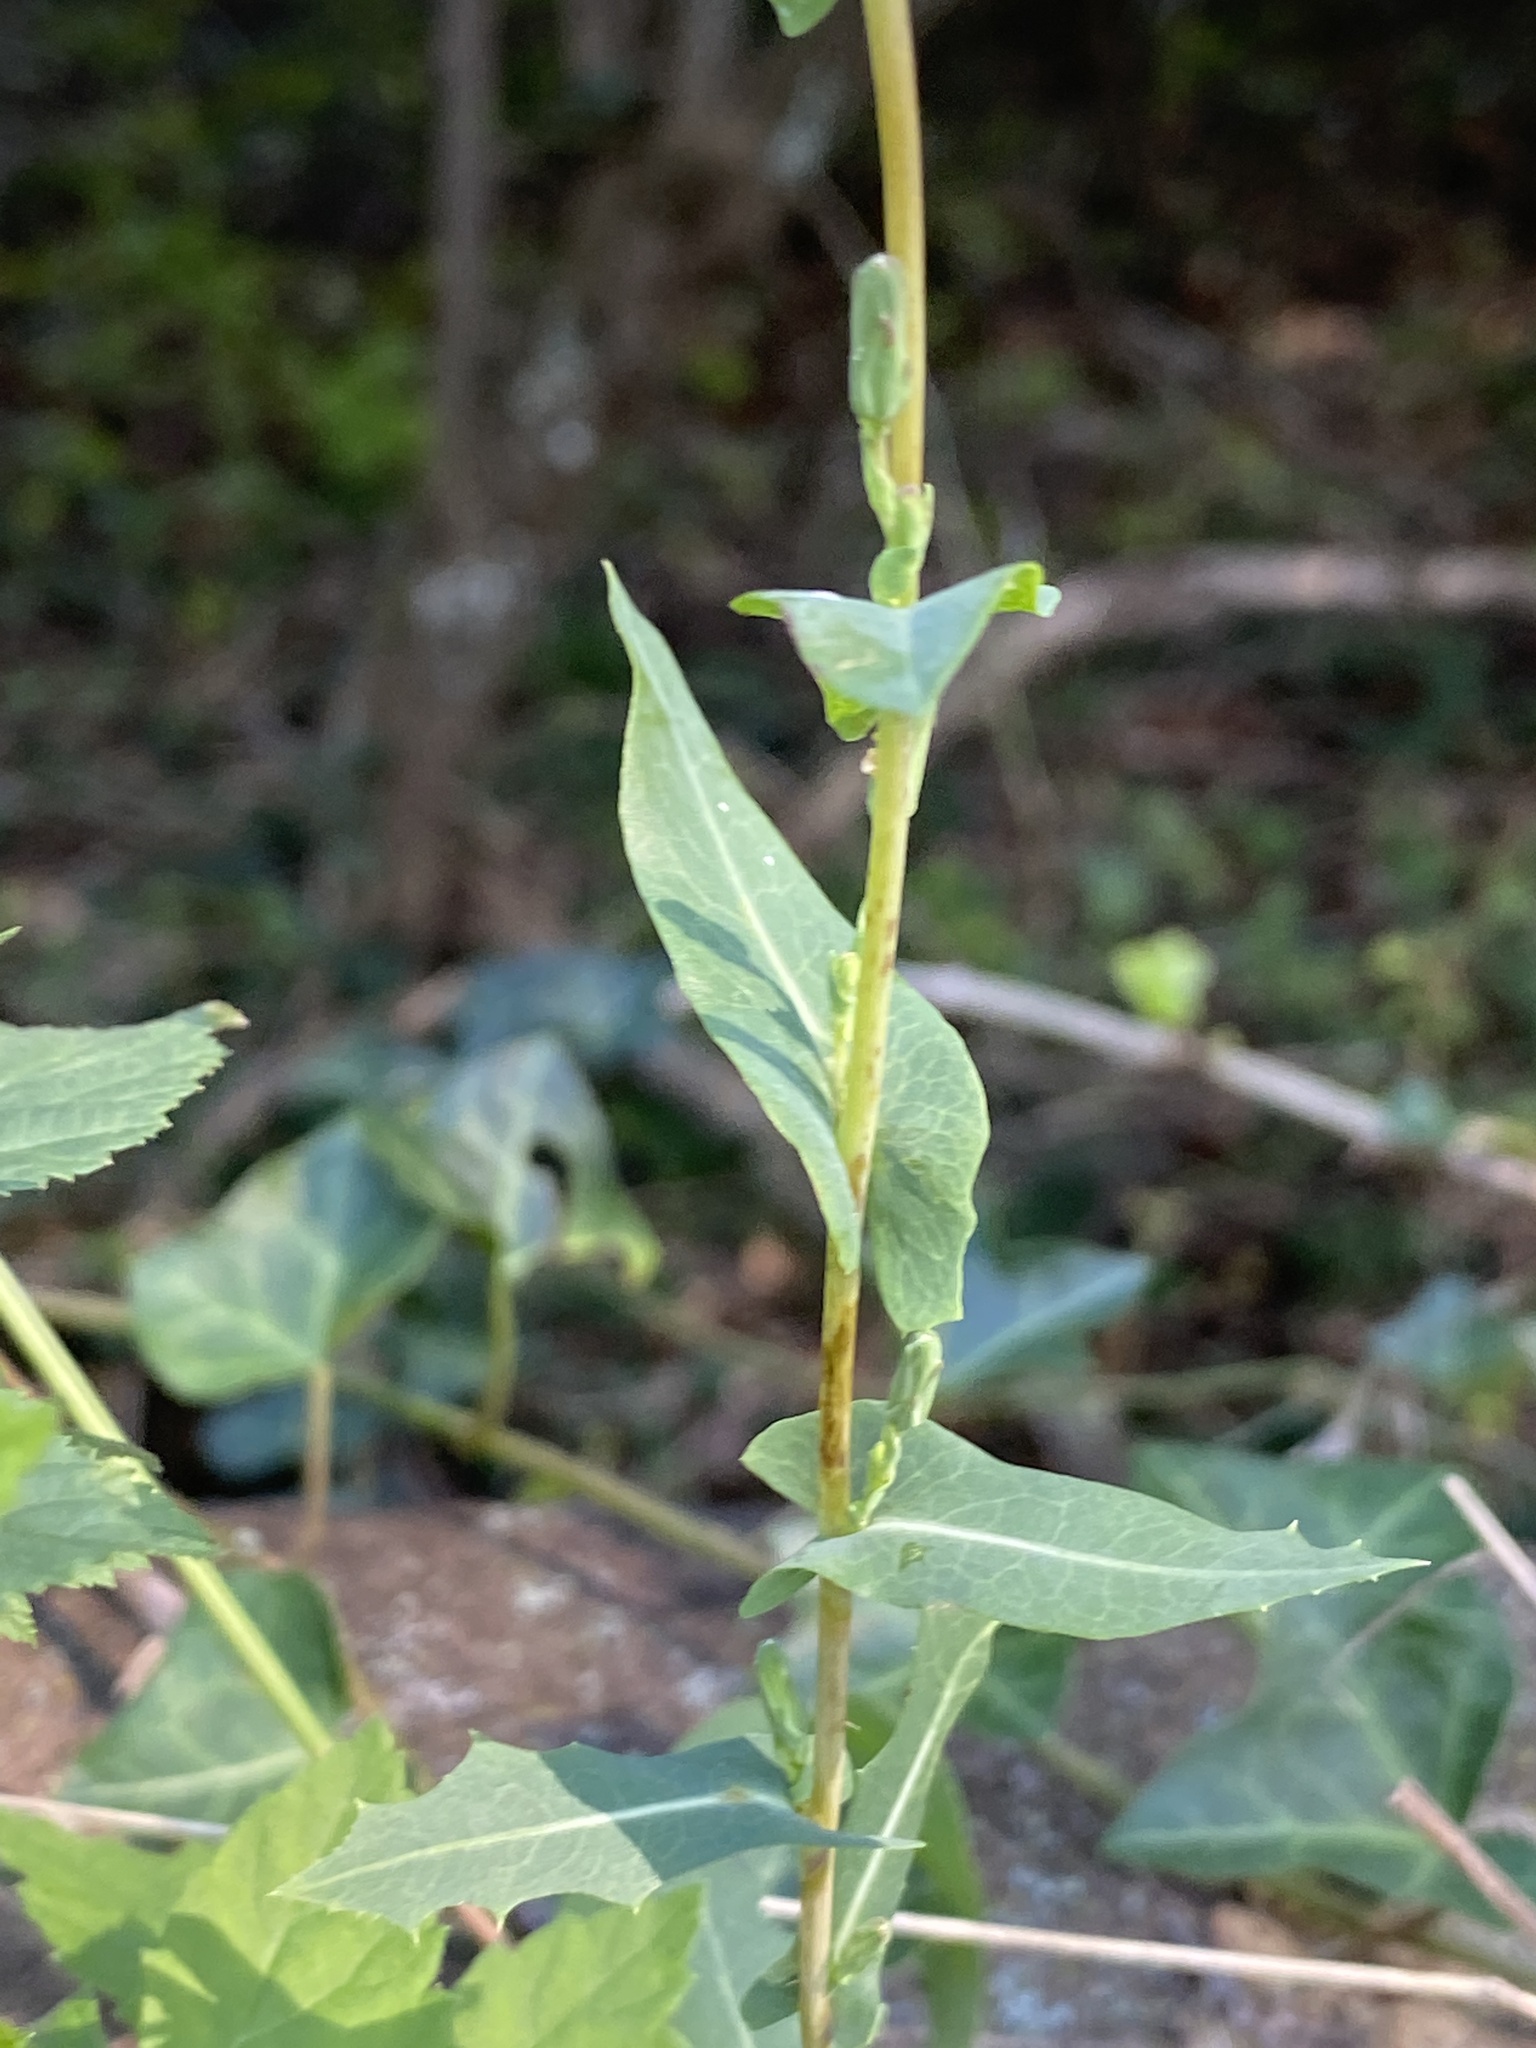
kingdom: Plantae
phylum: Tracheophyta
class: Magnoliopsida
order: Asterales
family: Asteraceae
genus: Lactuca
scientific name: Lactuca serriola
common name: Prickly lettuce
